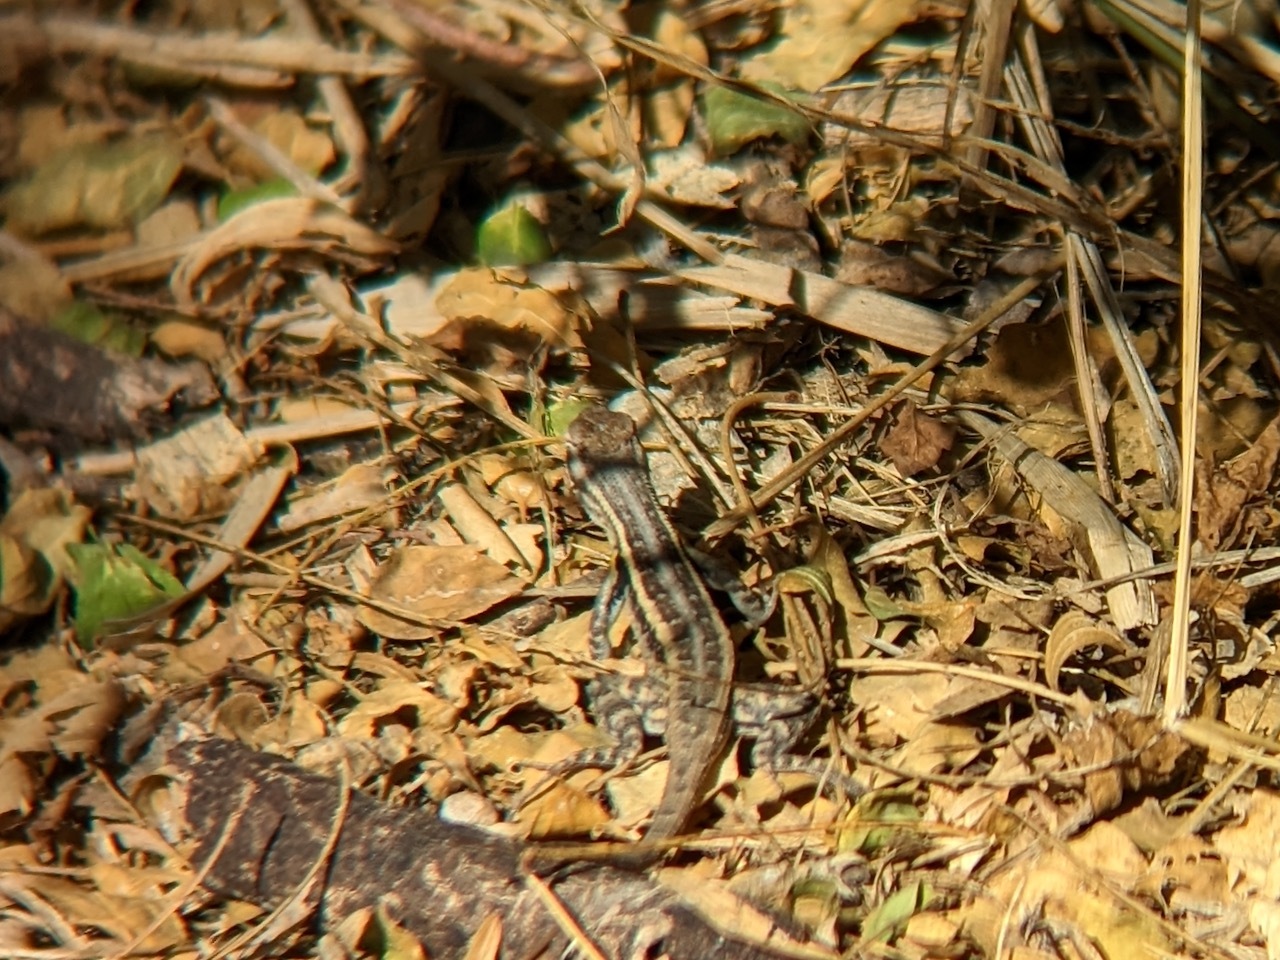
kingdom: Animalia
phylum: Chordata
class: Squamata
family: Phrynosomatidae
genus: Sceloporus
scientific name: Sceloporus variabilis
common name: Rosebelly lizard
